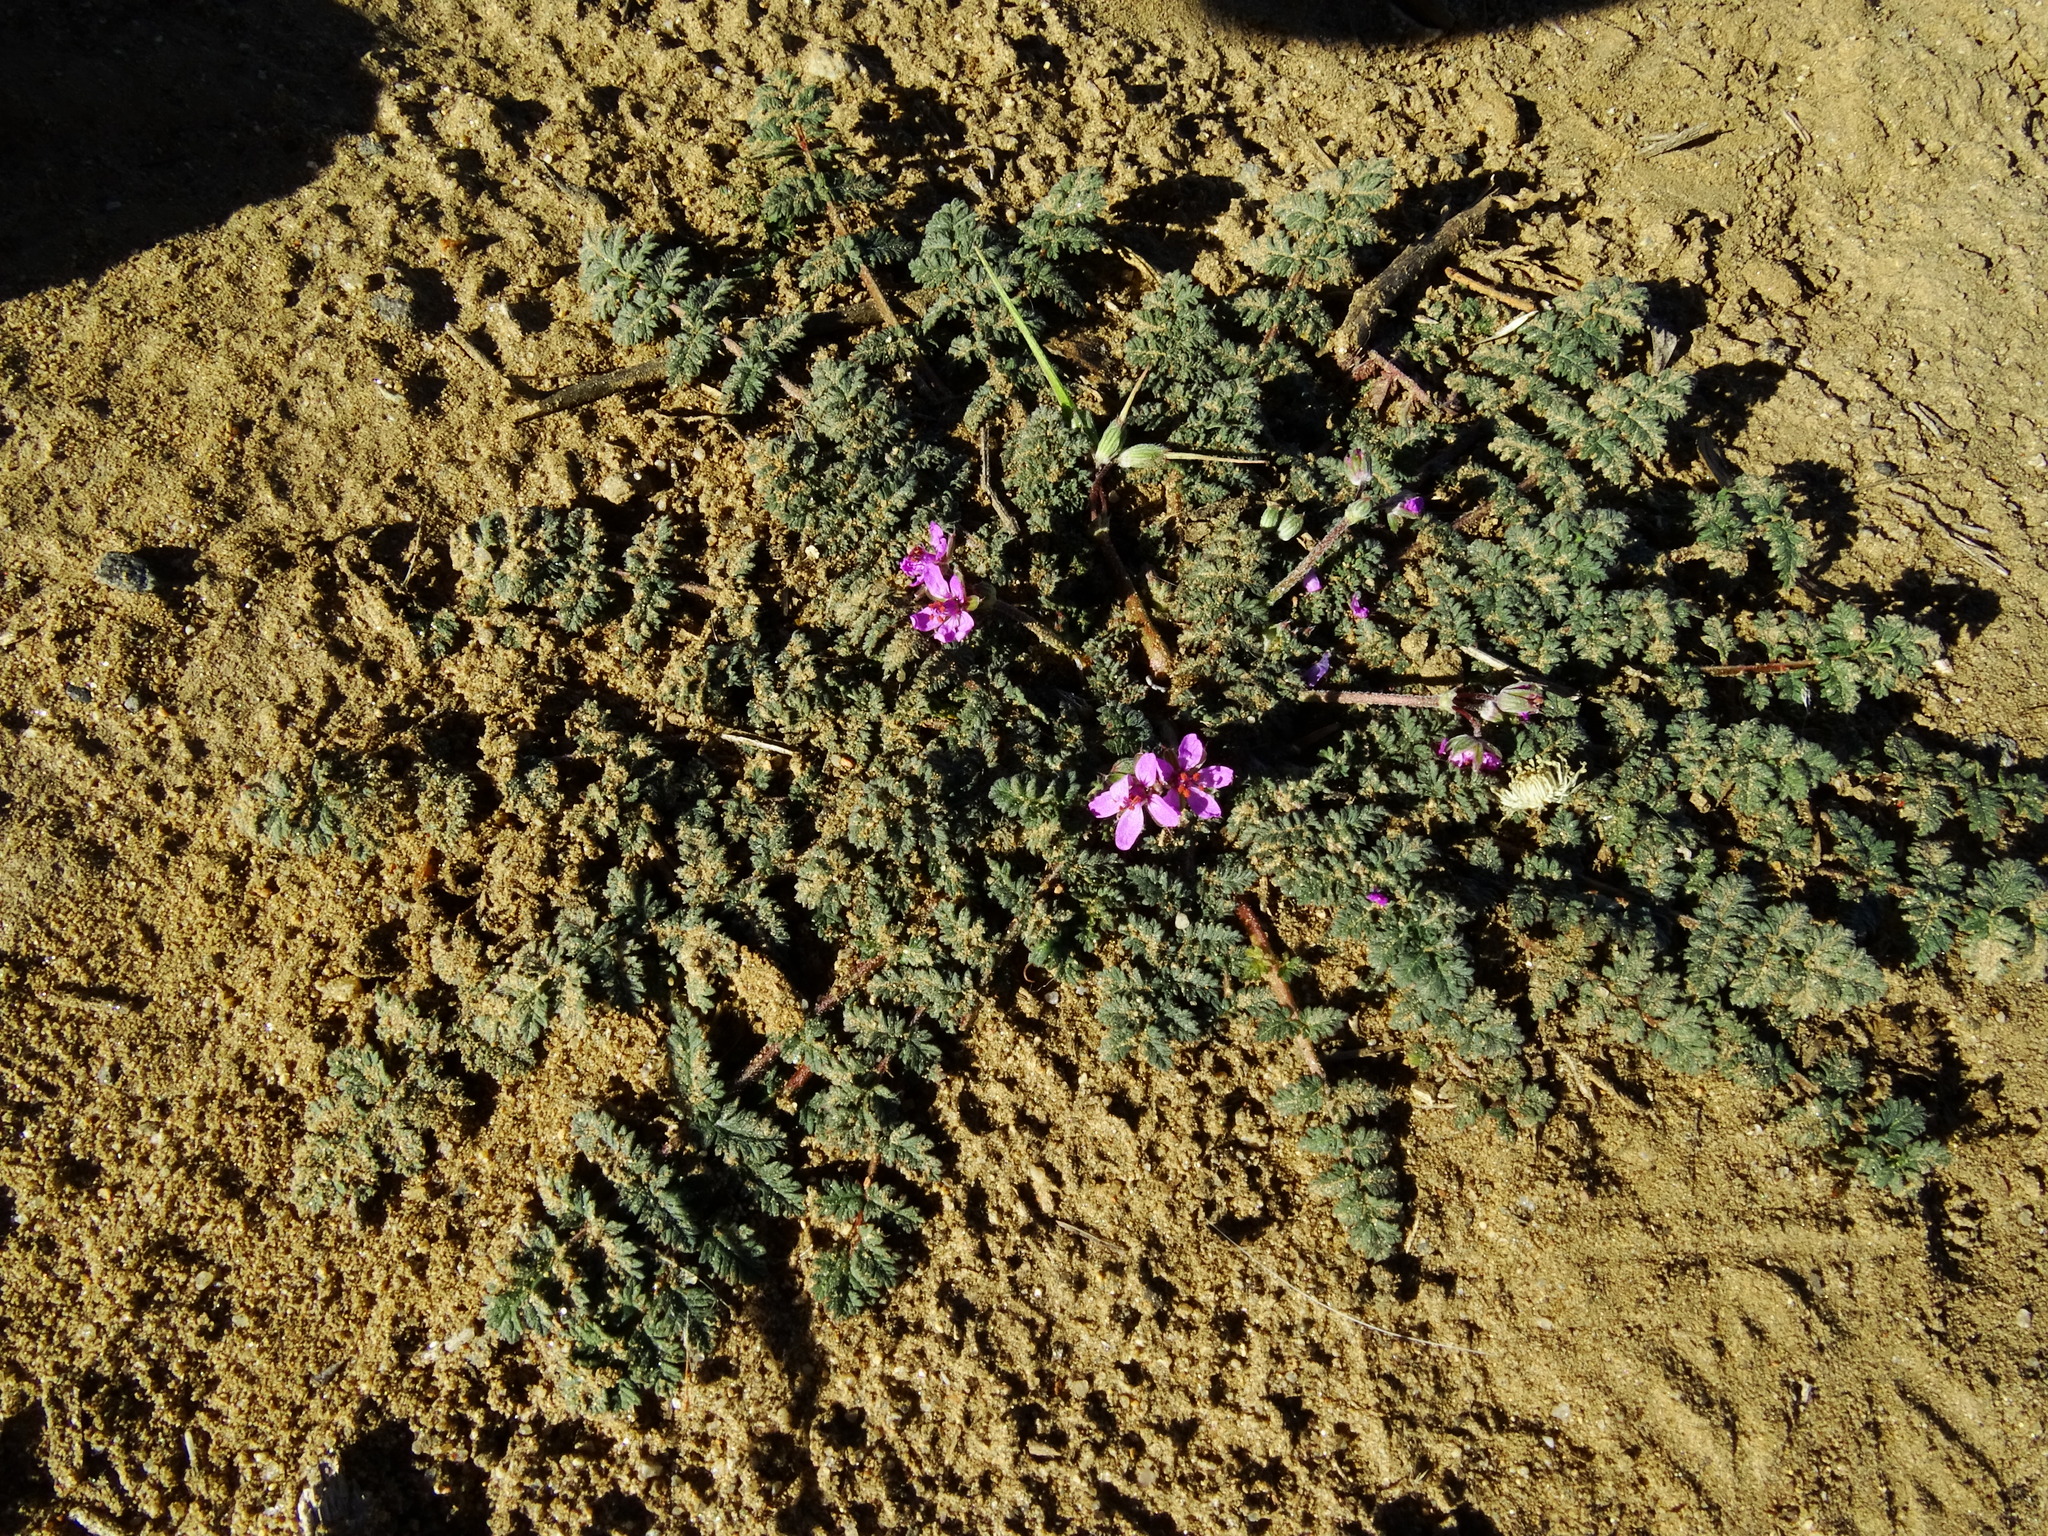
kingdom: Plantae
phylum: Tracheophyta
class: Magnoliopsida
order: Geraniales
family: Geraniaceae
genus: Erodium
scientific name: Erodium cicutarium
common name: Common stork's-bill
